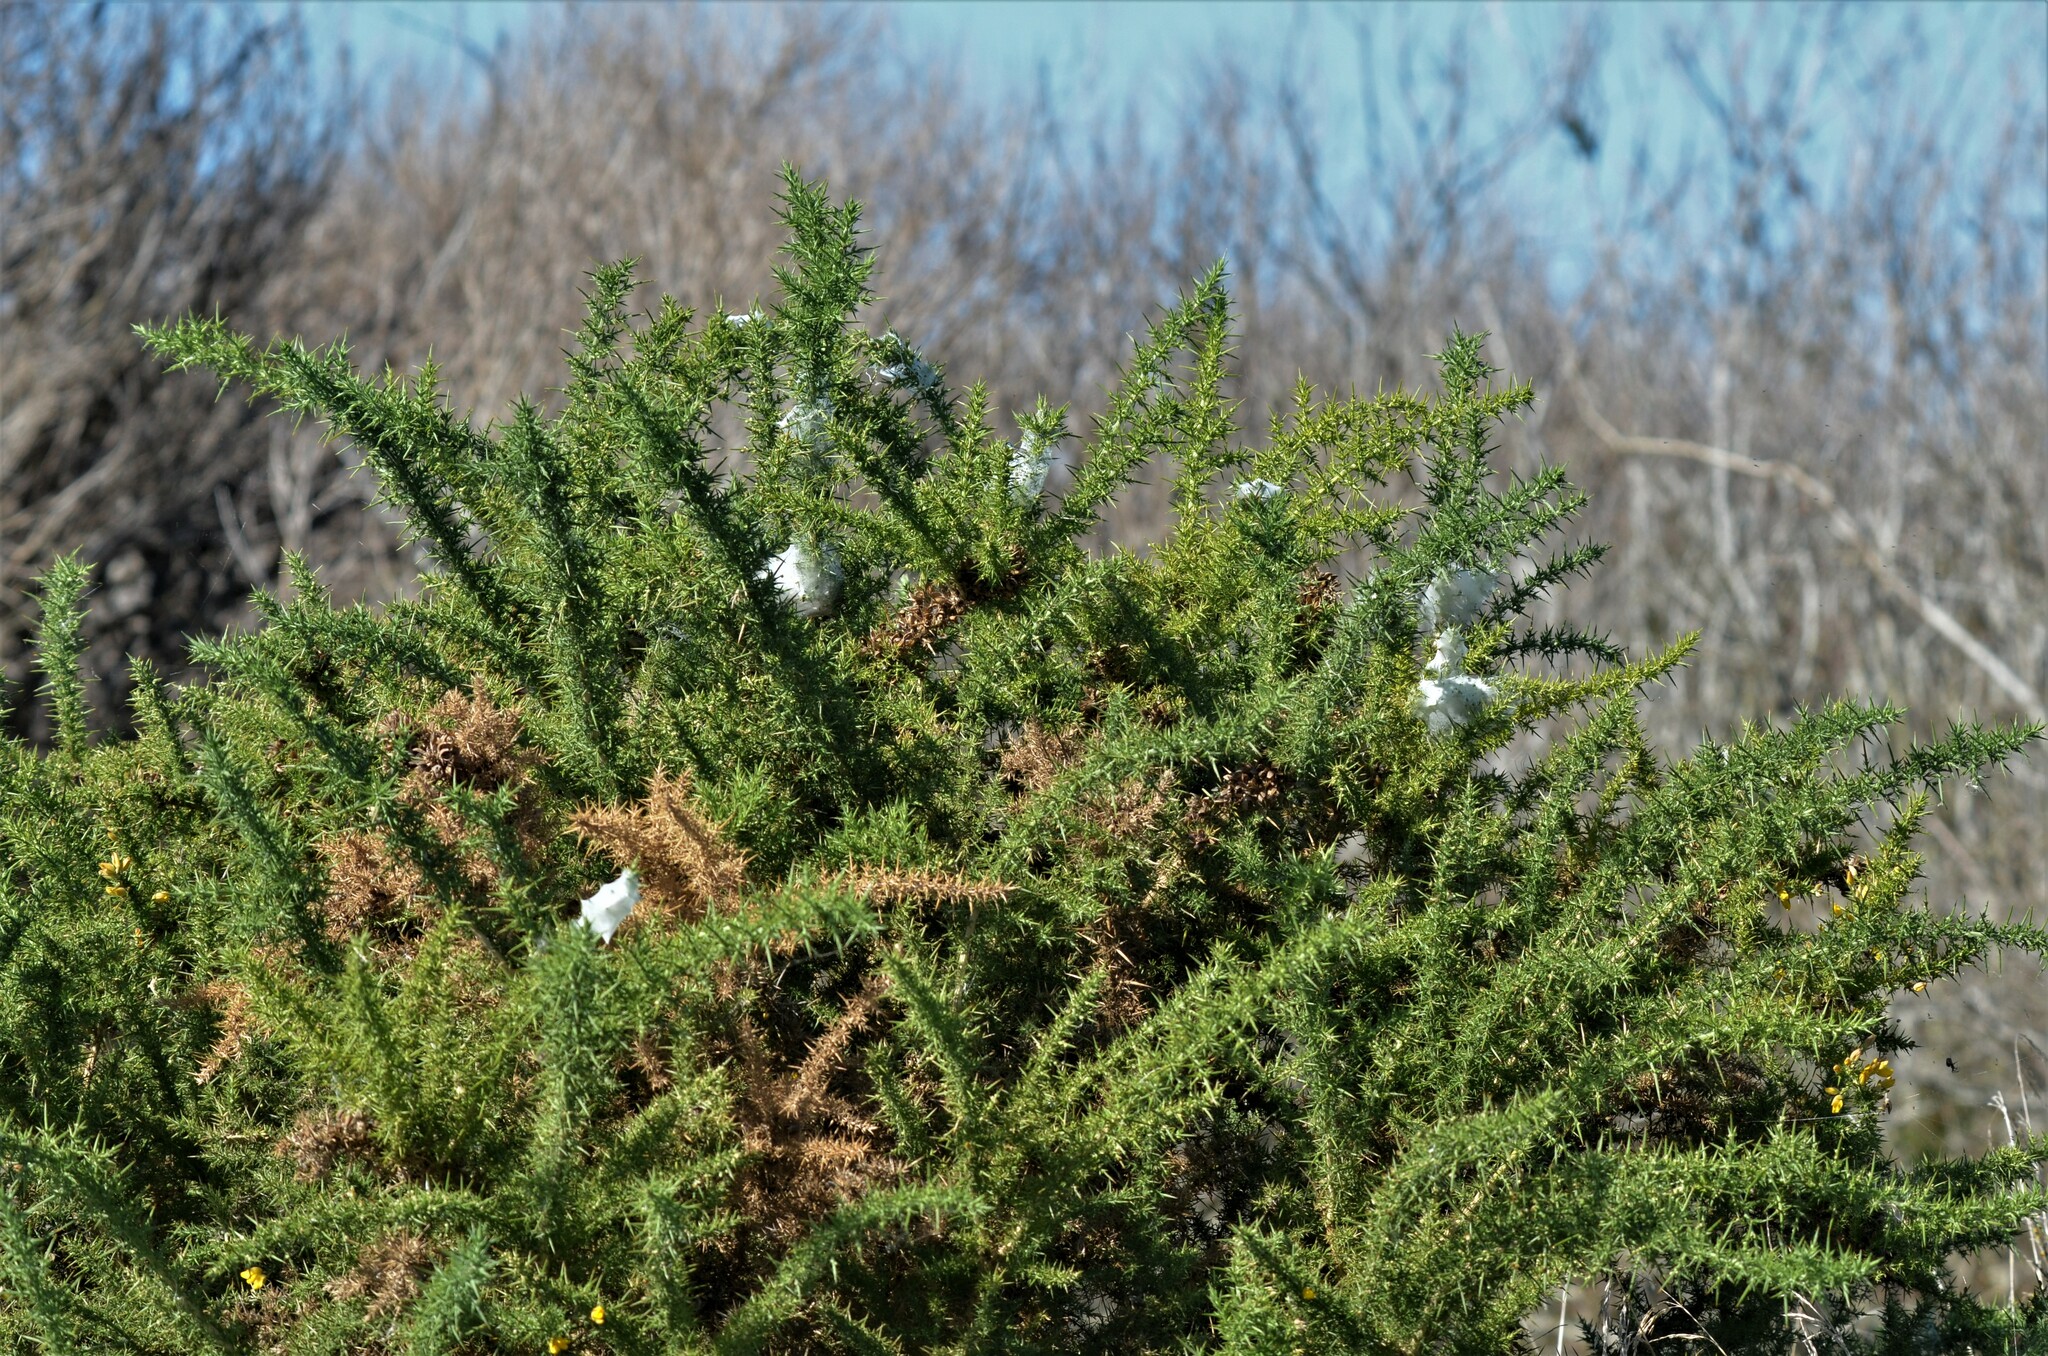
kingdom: Animalia
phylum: Arthropoda
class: Arachnida
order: Araneae
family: Pisauridae
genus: Dolomedes
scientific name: Dolomedes minor
